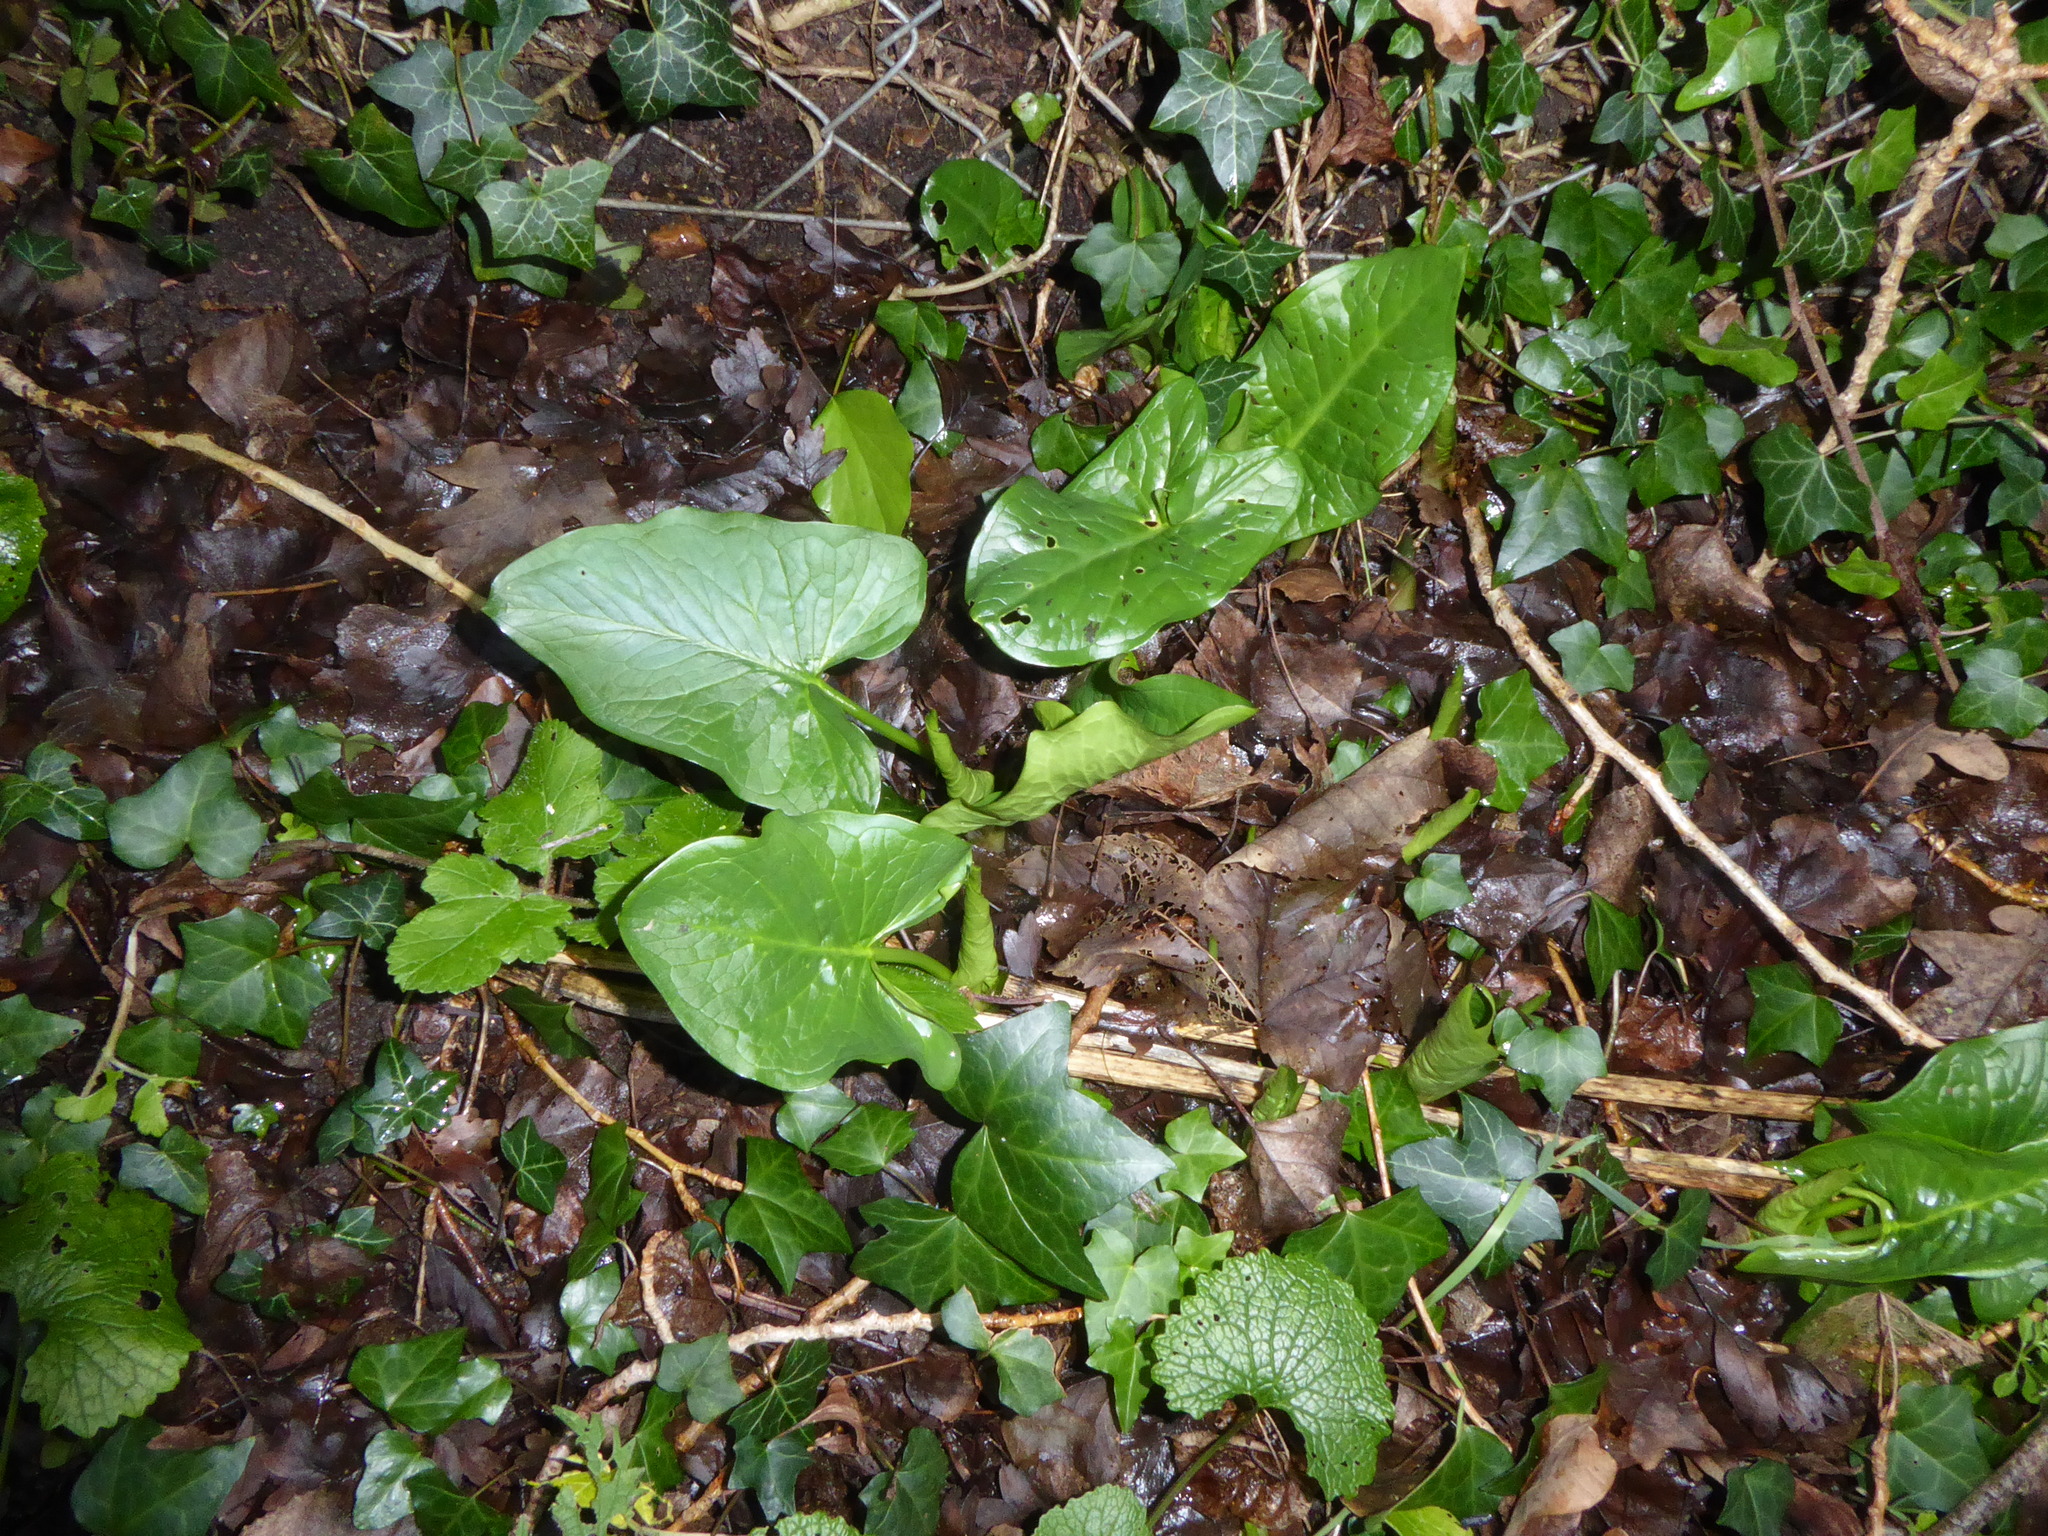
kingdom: Plantae
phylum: Tracheophyta
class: Liliopsida
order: Alismatales
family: Araceae
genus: Arum
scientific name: Arum maculatum
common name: Lords-and-ladies
